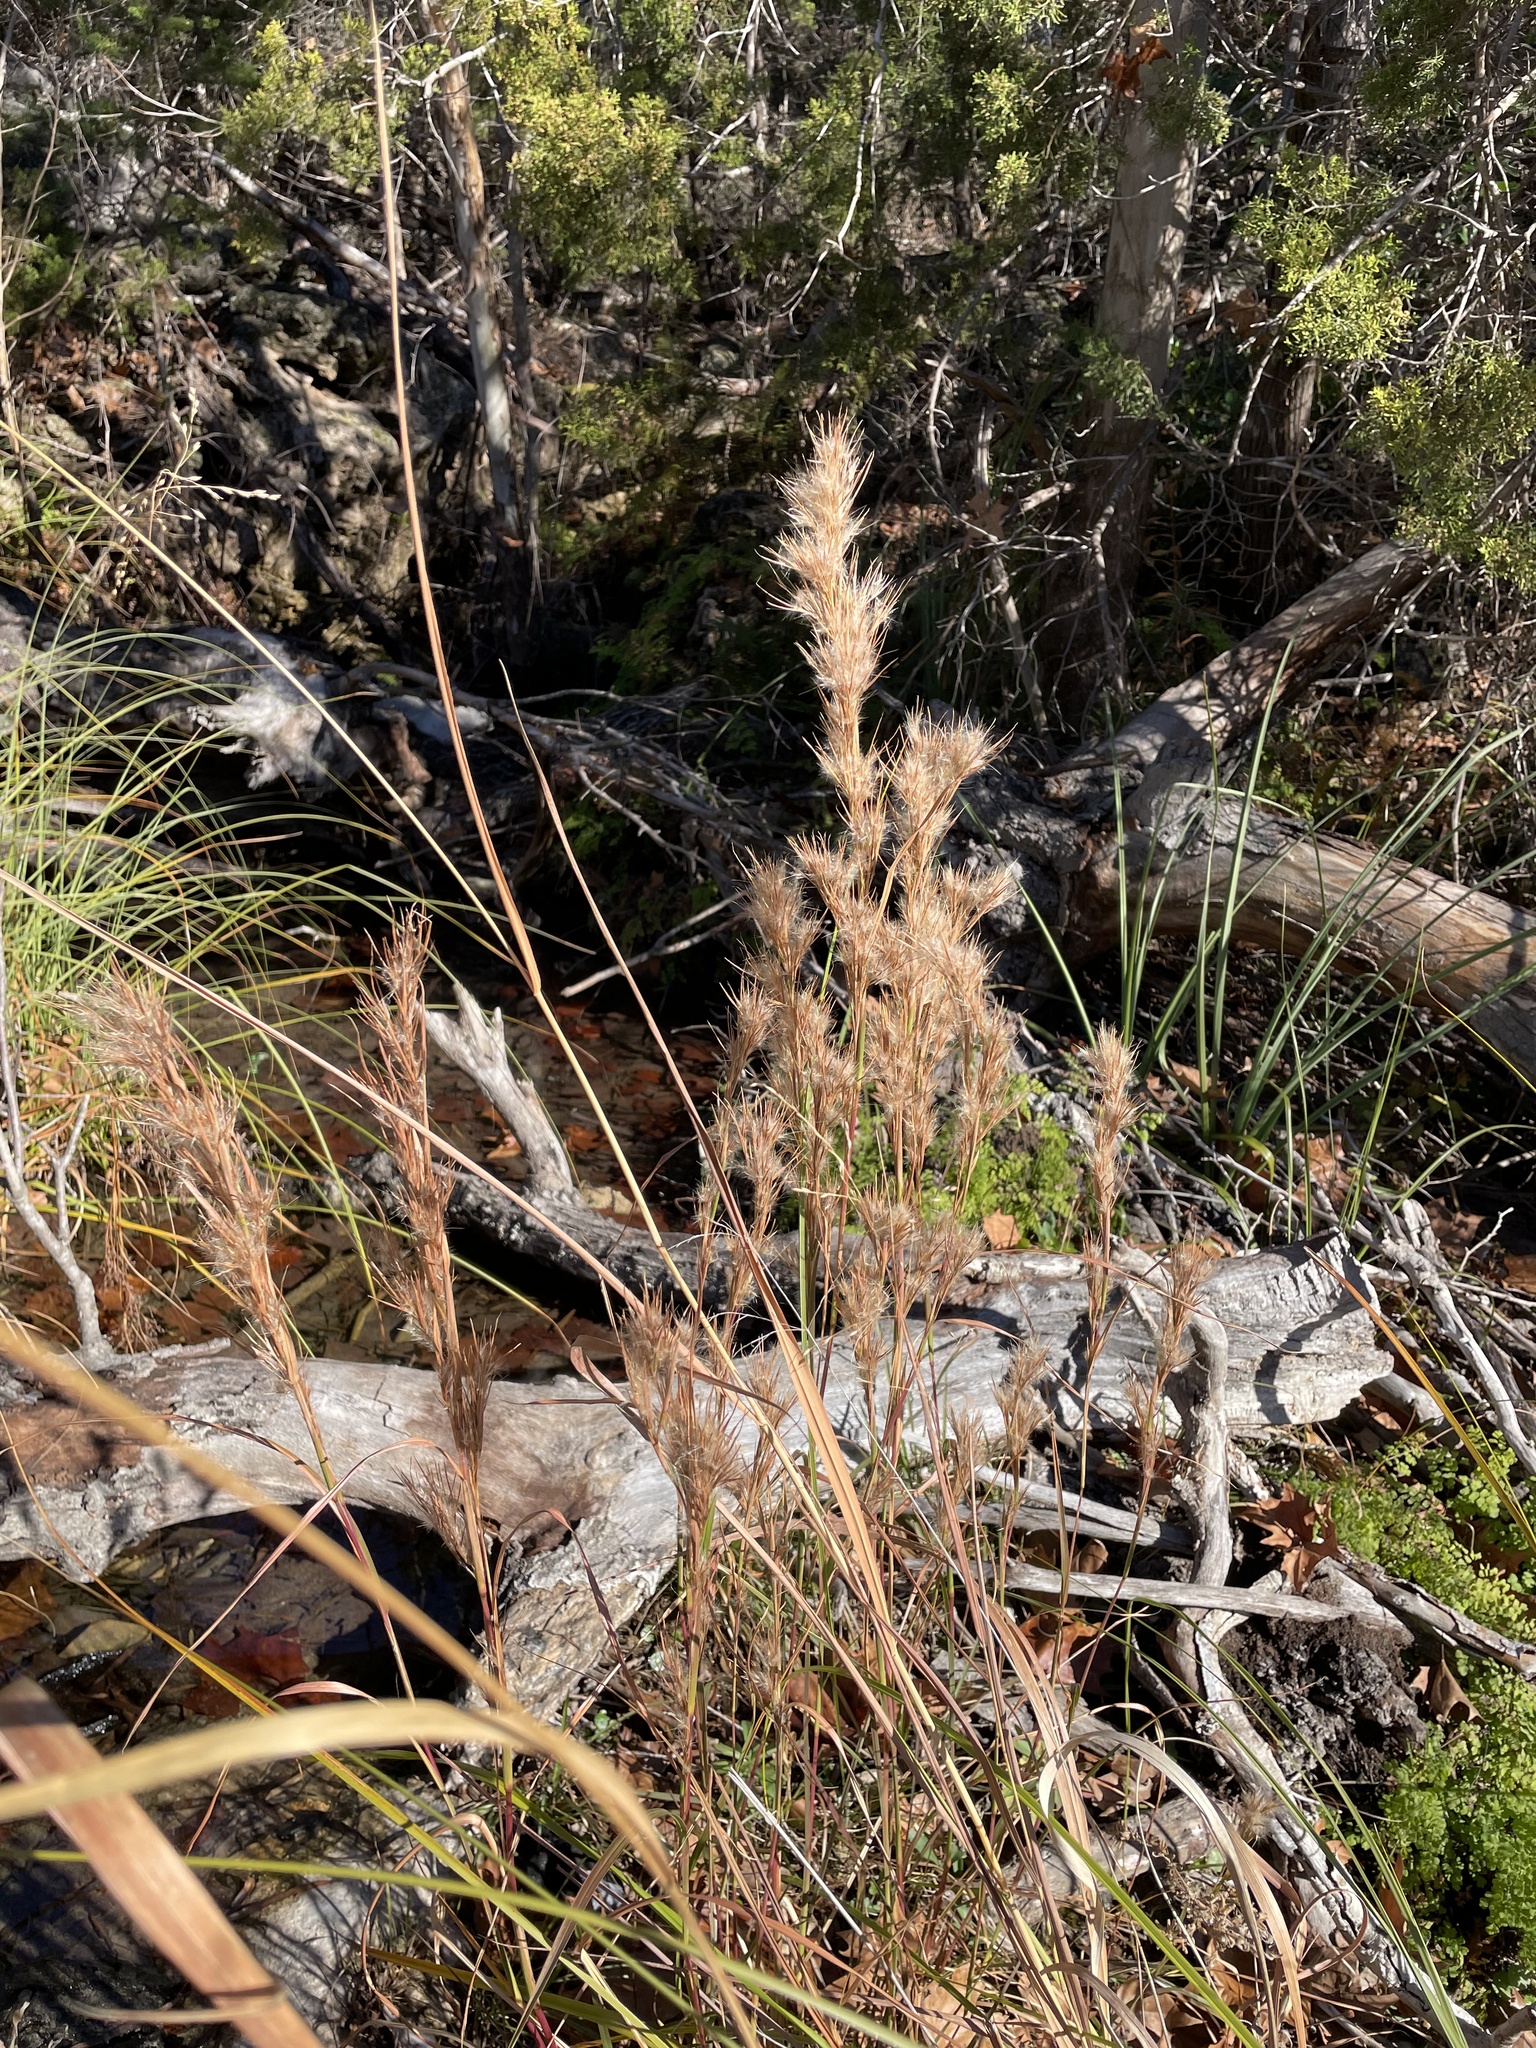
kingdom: Plantae
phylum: Tracheophyta
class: Liliopsida
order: Poales
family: Poaceae
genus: Andropogon
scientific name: Andropogon tenuispatheus
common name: Bushy bluestem
